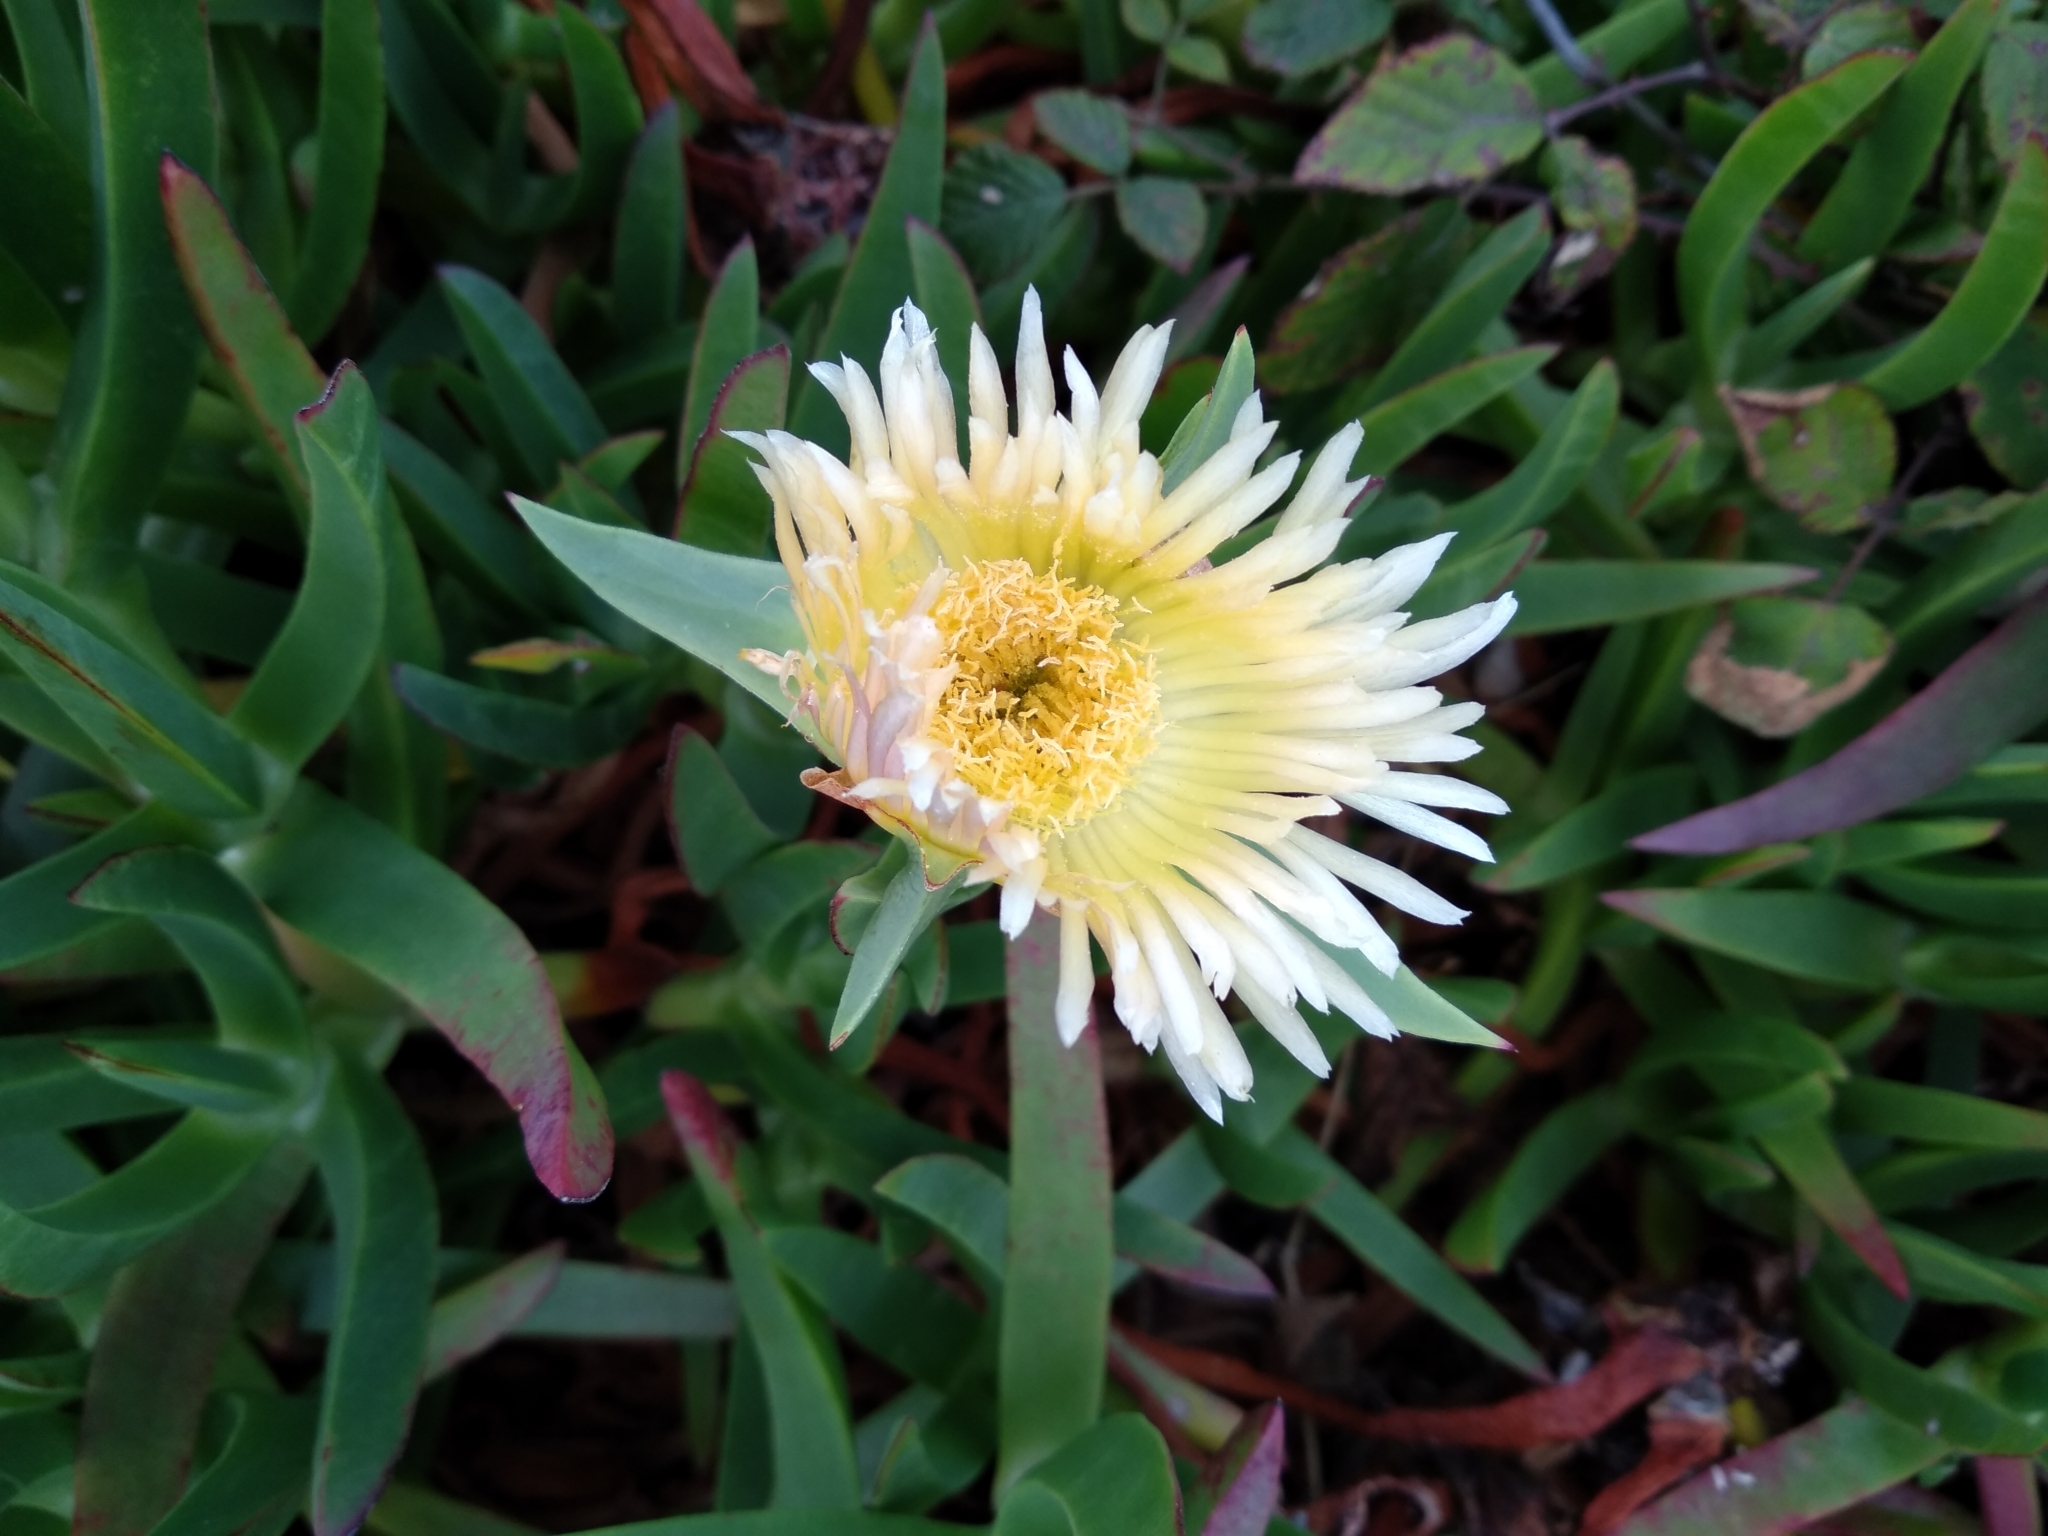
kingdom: Plantae
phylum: Tracheophyta
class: Magnoliopsida
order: Caryophyllales
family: Aizoaceae
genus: Carpobrotus
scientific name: Carpobrotus edulis
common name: Hottentot-fig
